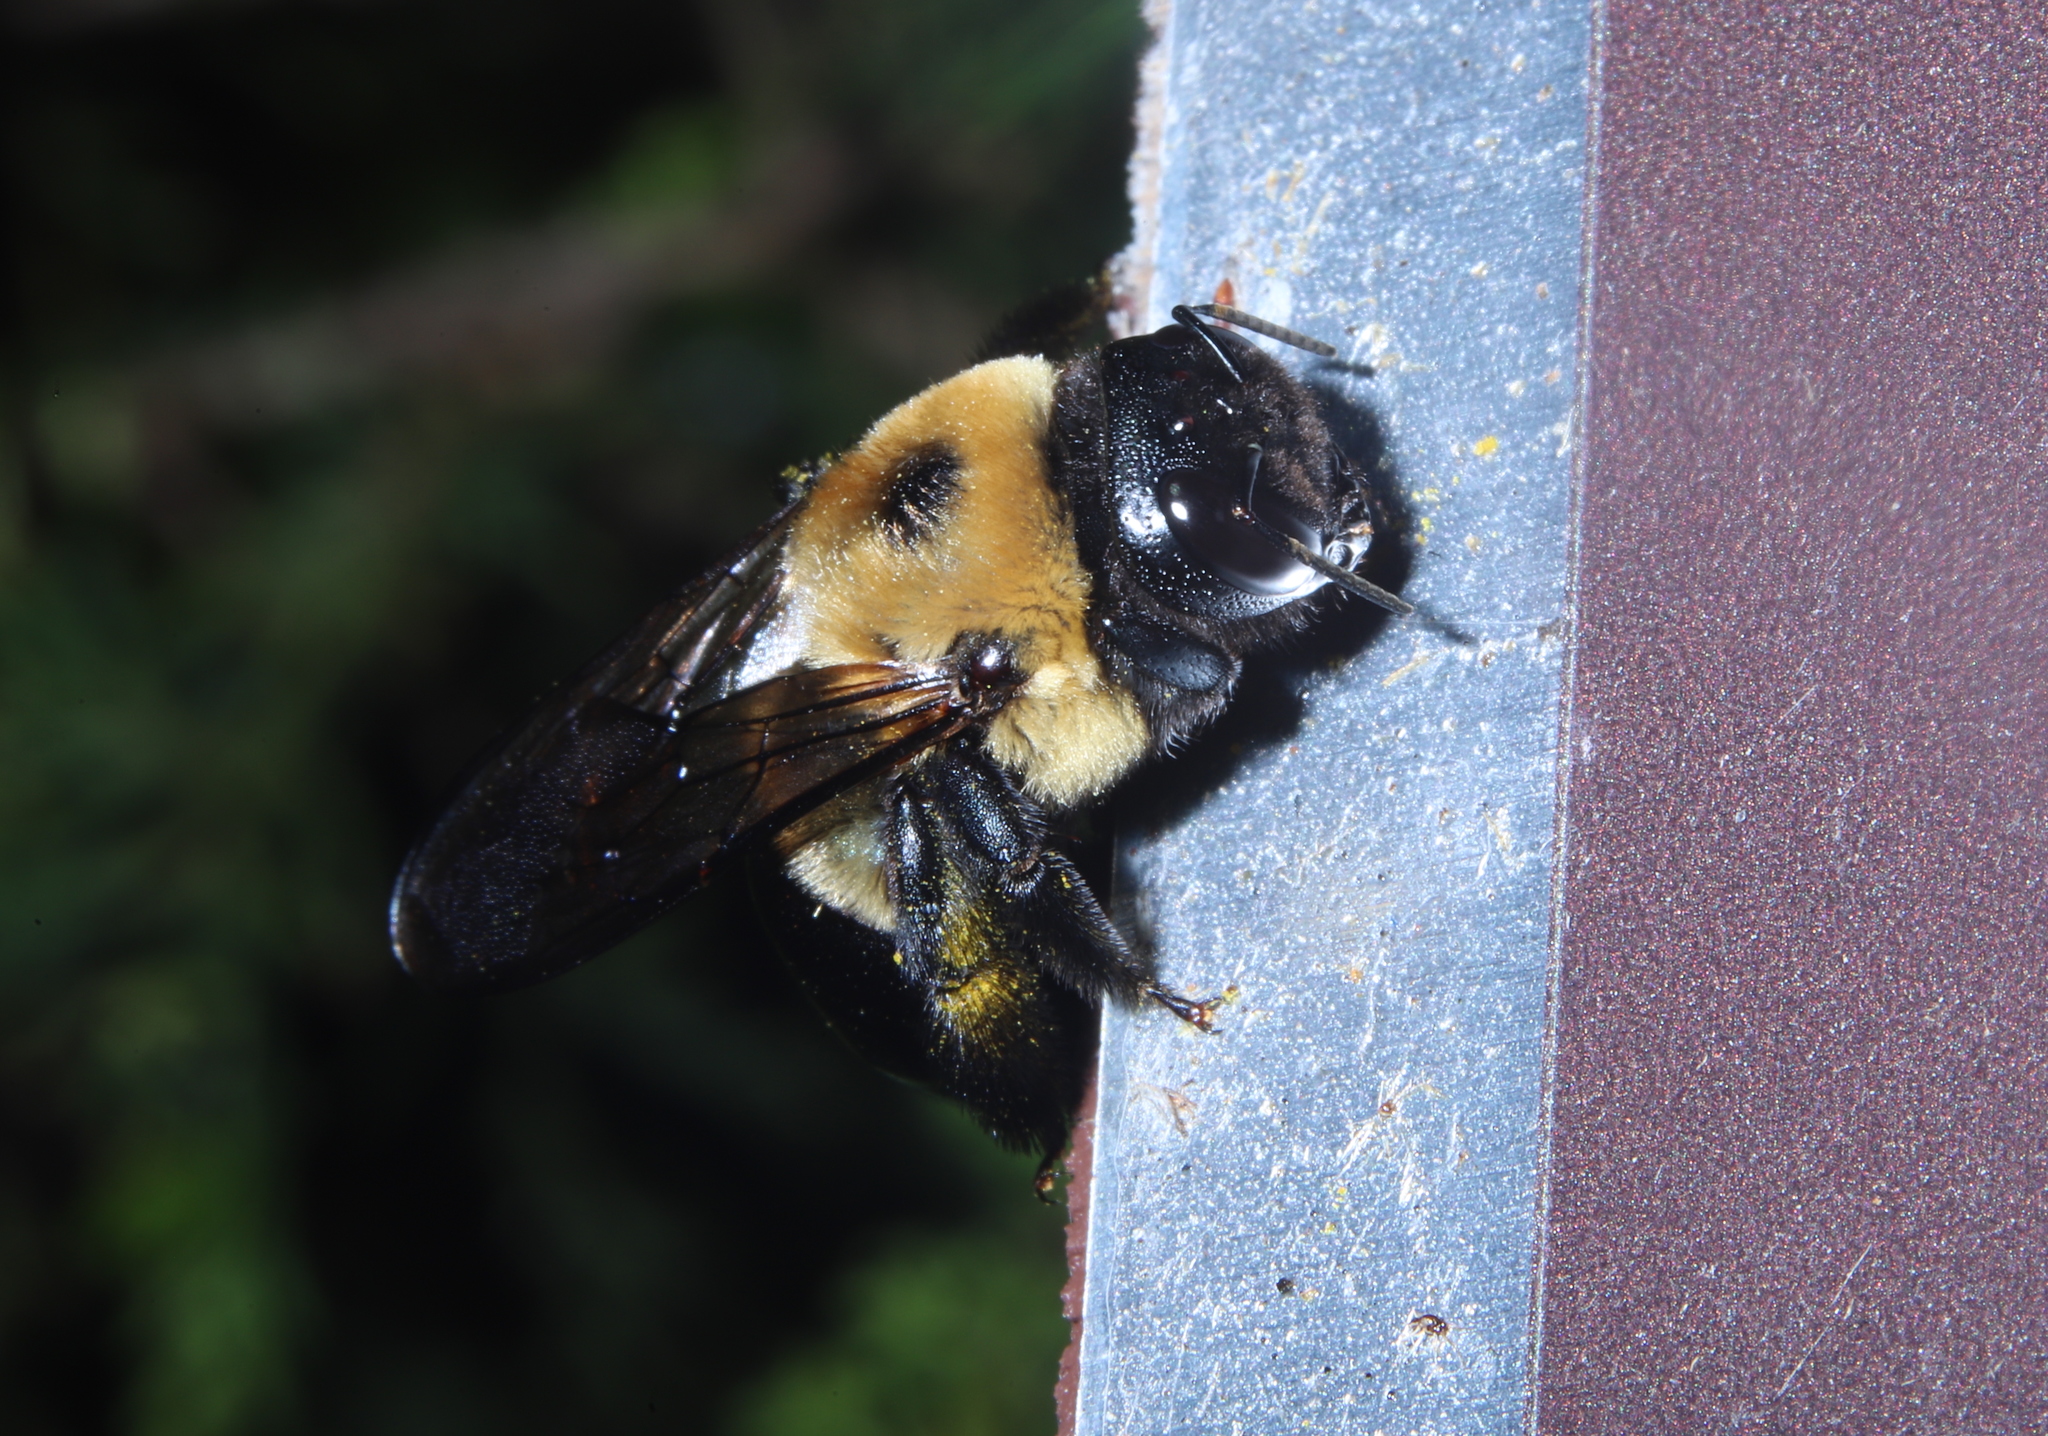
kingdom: Animalia
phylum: Arthropoda
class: Insecta
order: Hymenoptera
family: Apidae
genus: Xylocopa
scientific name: Xylocopa virginica
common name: Carpenter bee
